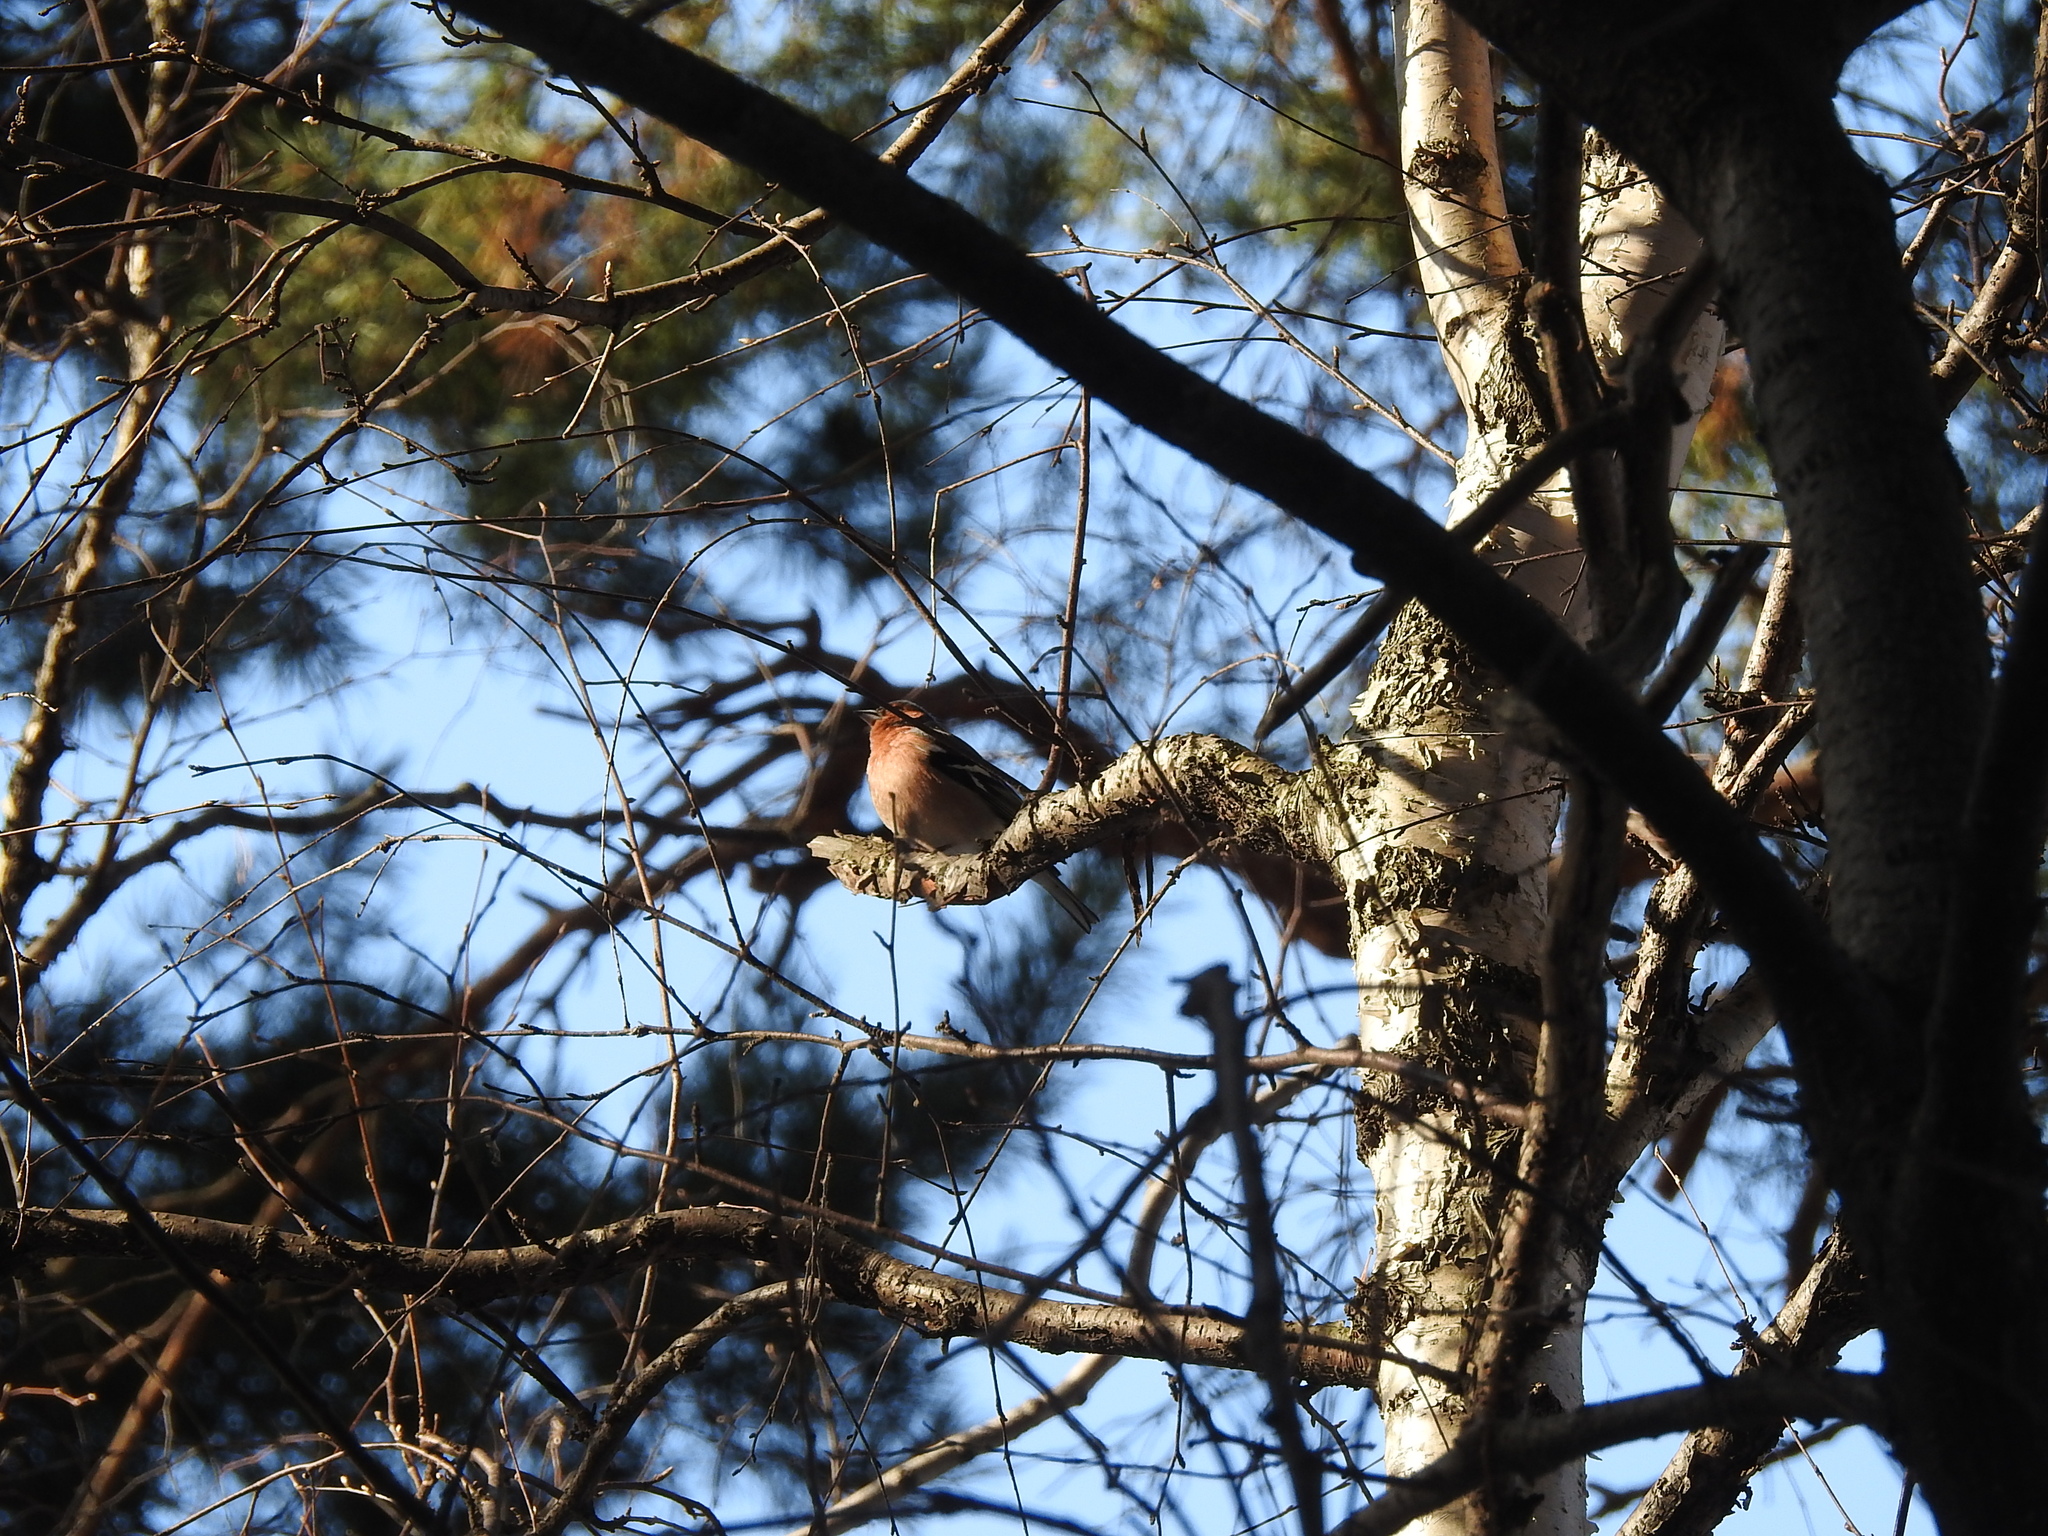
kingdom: Animalia
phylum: Chordata
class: Aves
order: Passeriformes
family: Fringillidae
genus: Fringilla
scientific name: Fringilla coelebs
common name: Common chaffinch
